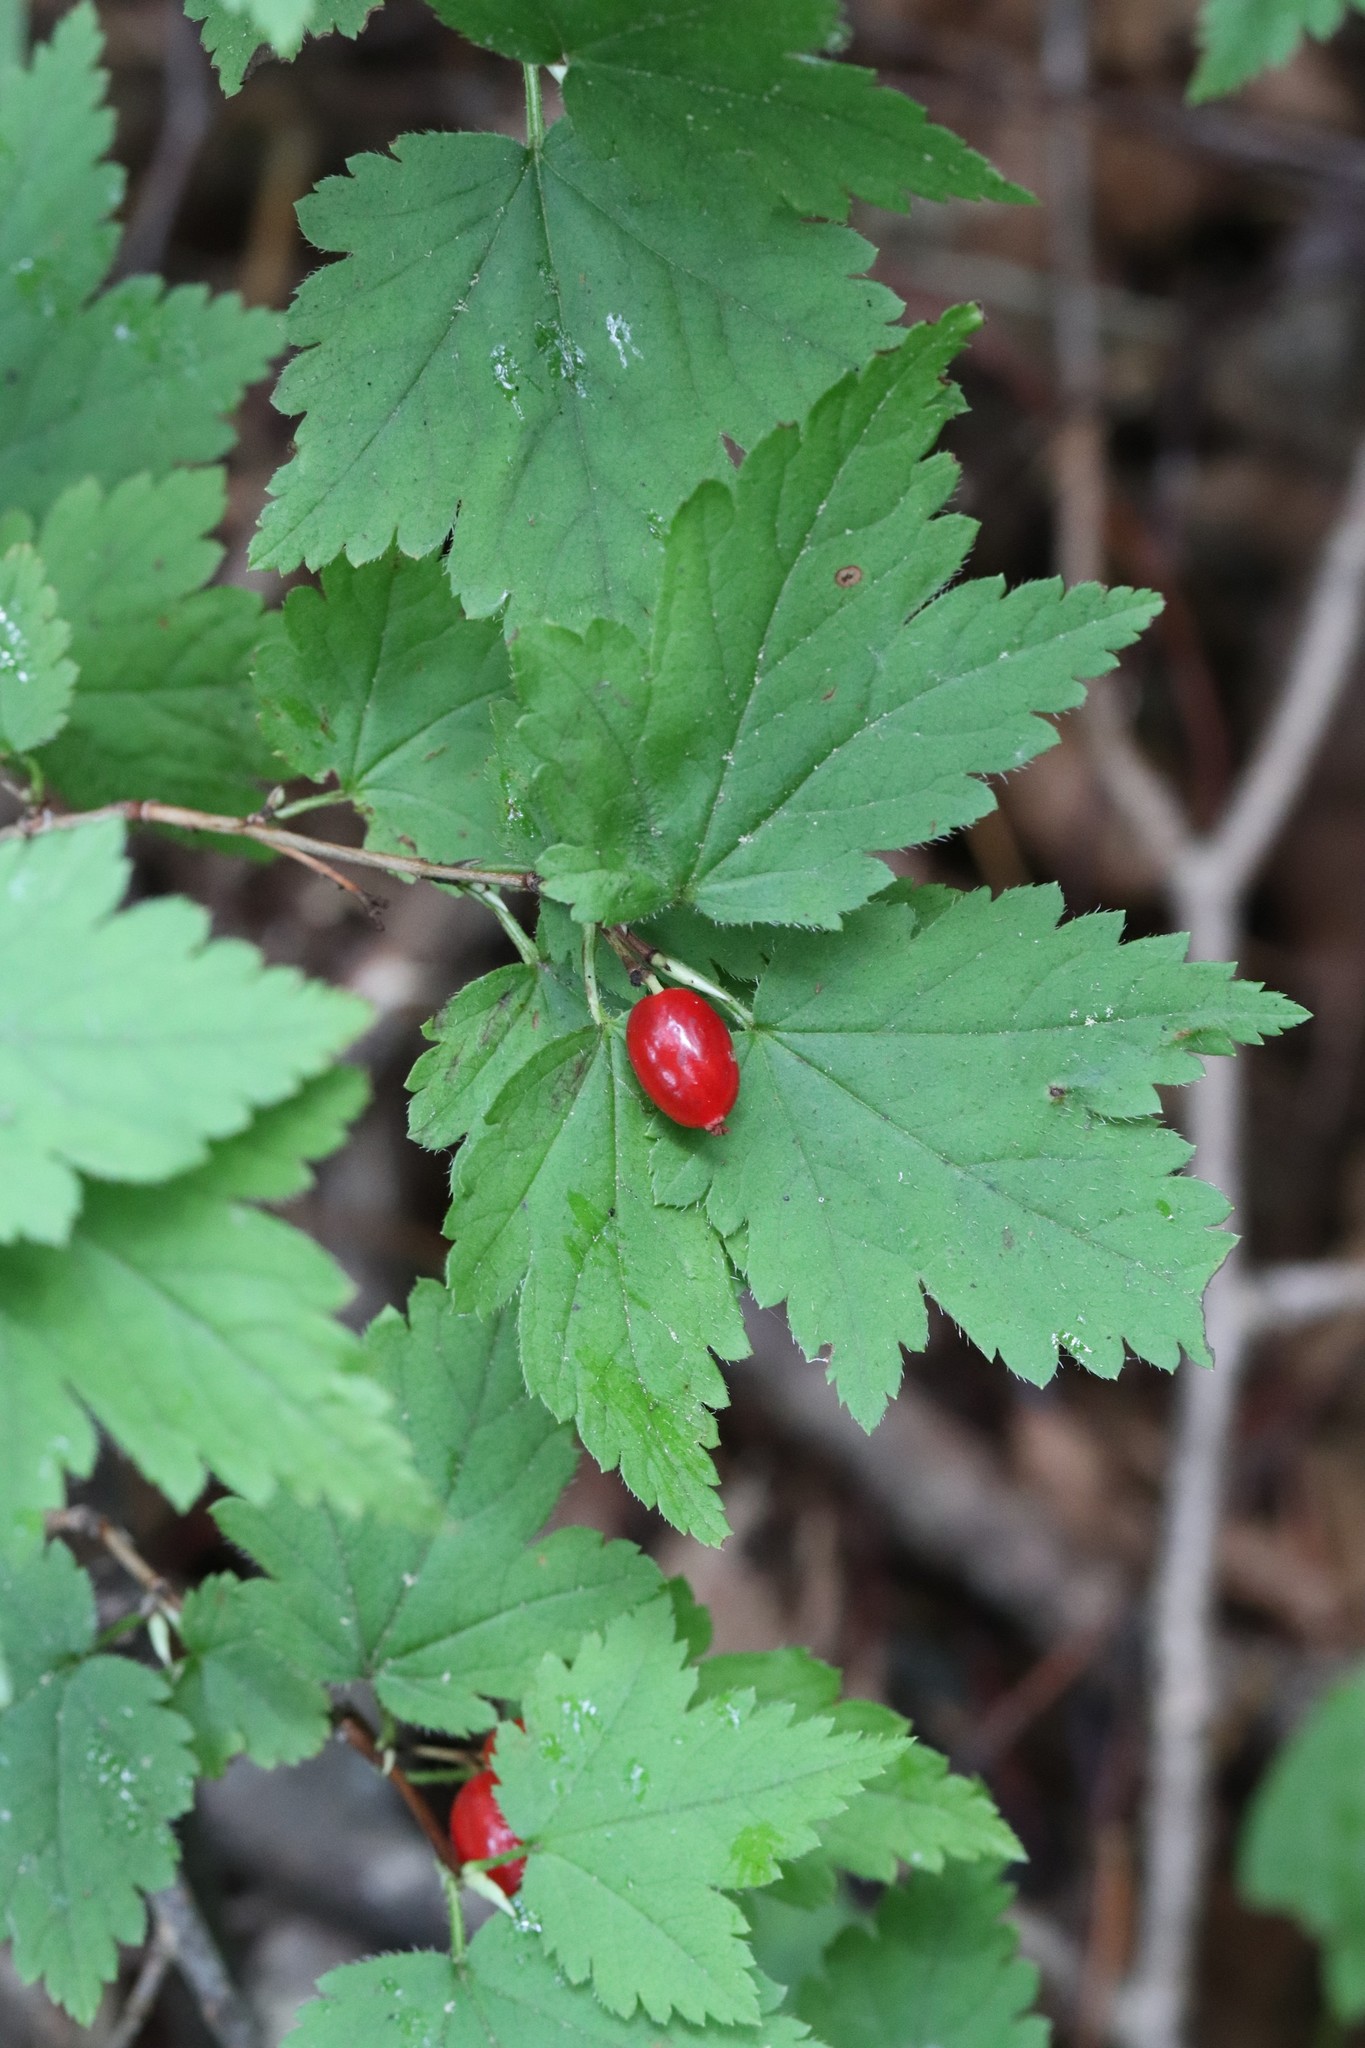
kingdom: Plantae
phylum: Tracheophyta
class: Magnoliopsida
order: Saxifragales
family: Grossulariaceae
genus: Ribes
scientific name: Ribes maximoviczianum
